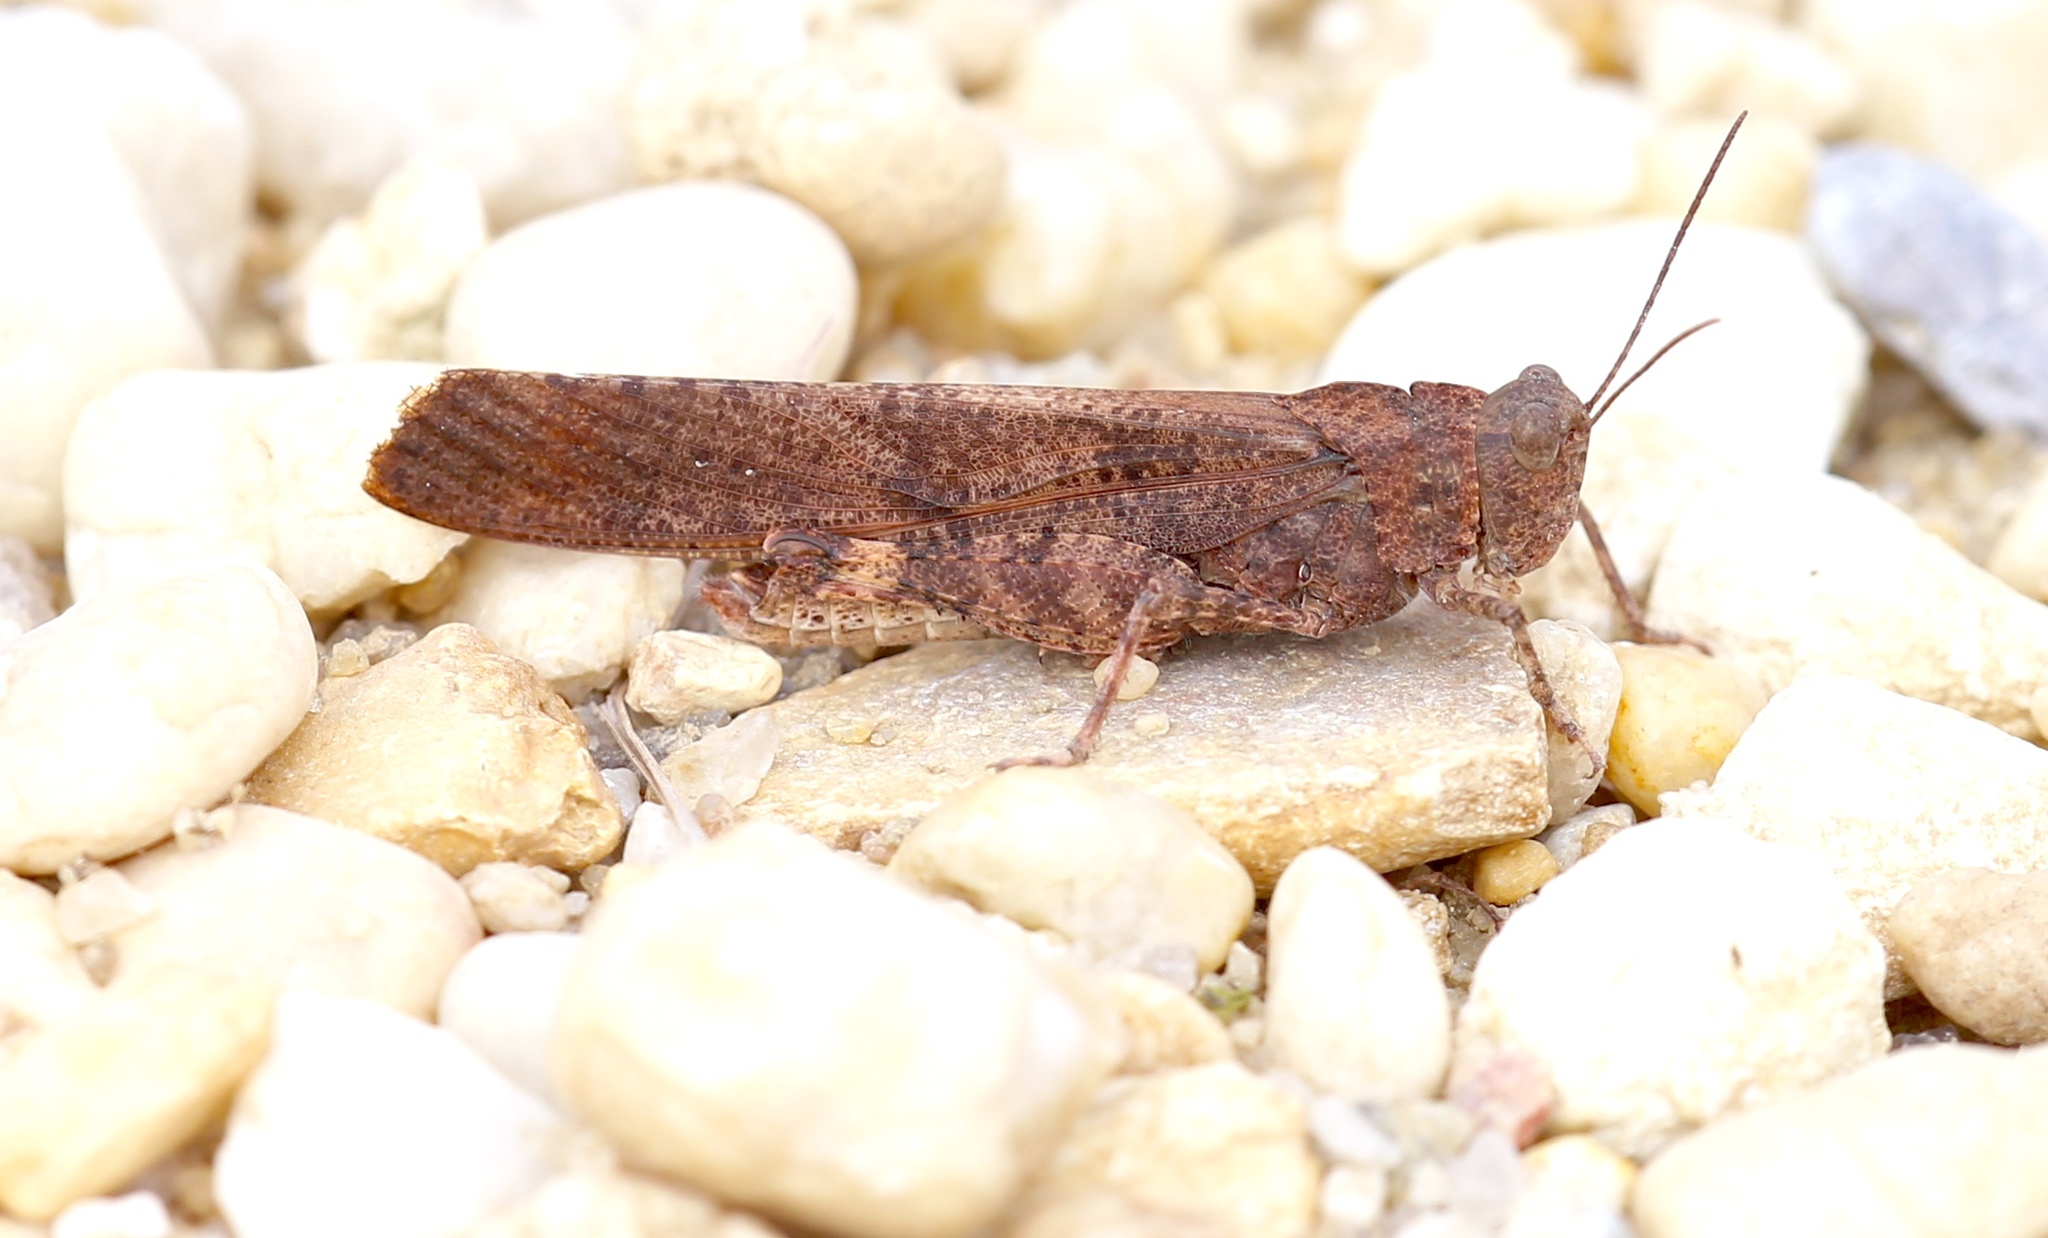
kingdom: Animalia
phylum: Arthropoda
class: Insecta
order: Orthoptera
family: Acrididae
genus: Dissosteira
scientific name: Dissosteira carolina
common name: Carolina grasshopper
